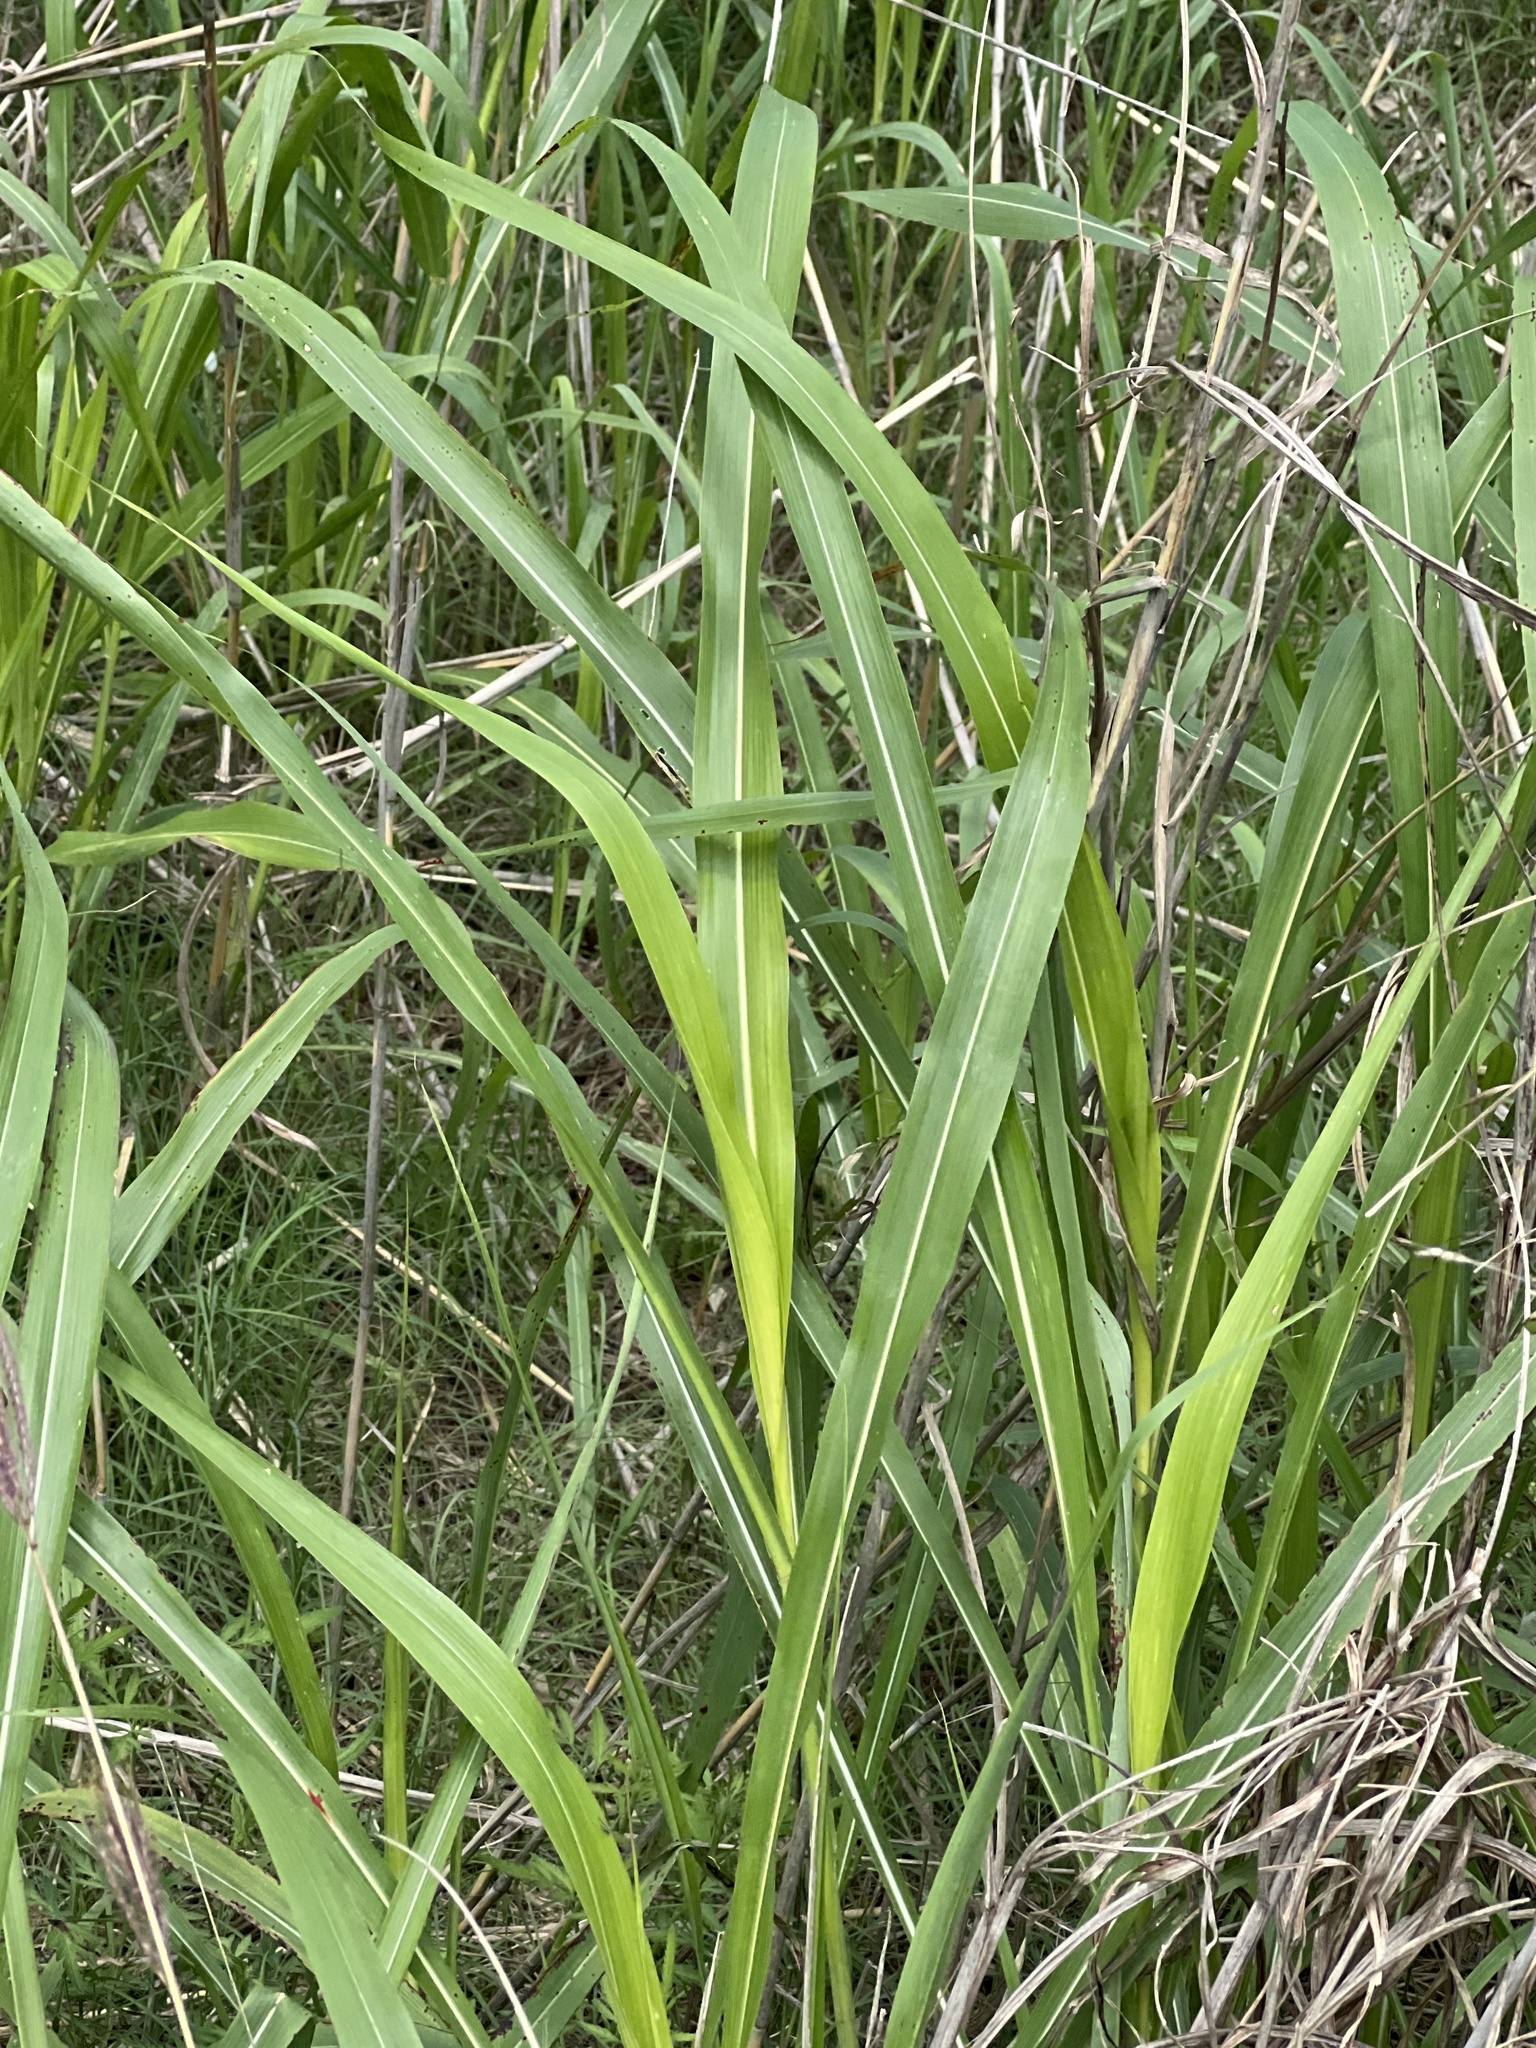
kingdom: Plantae
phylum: Tracheophyta
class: Liliopsida
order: Poales
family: Poaceae
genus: Sorghum
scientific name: Sorghum halepense
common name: Johnson-grass
